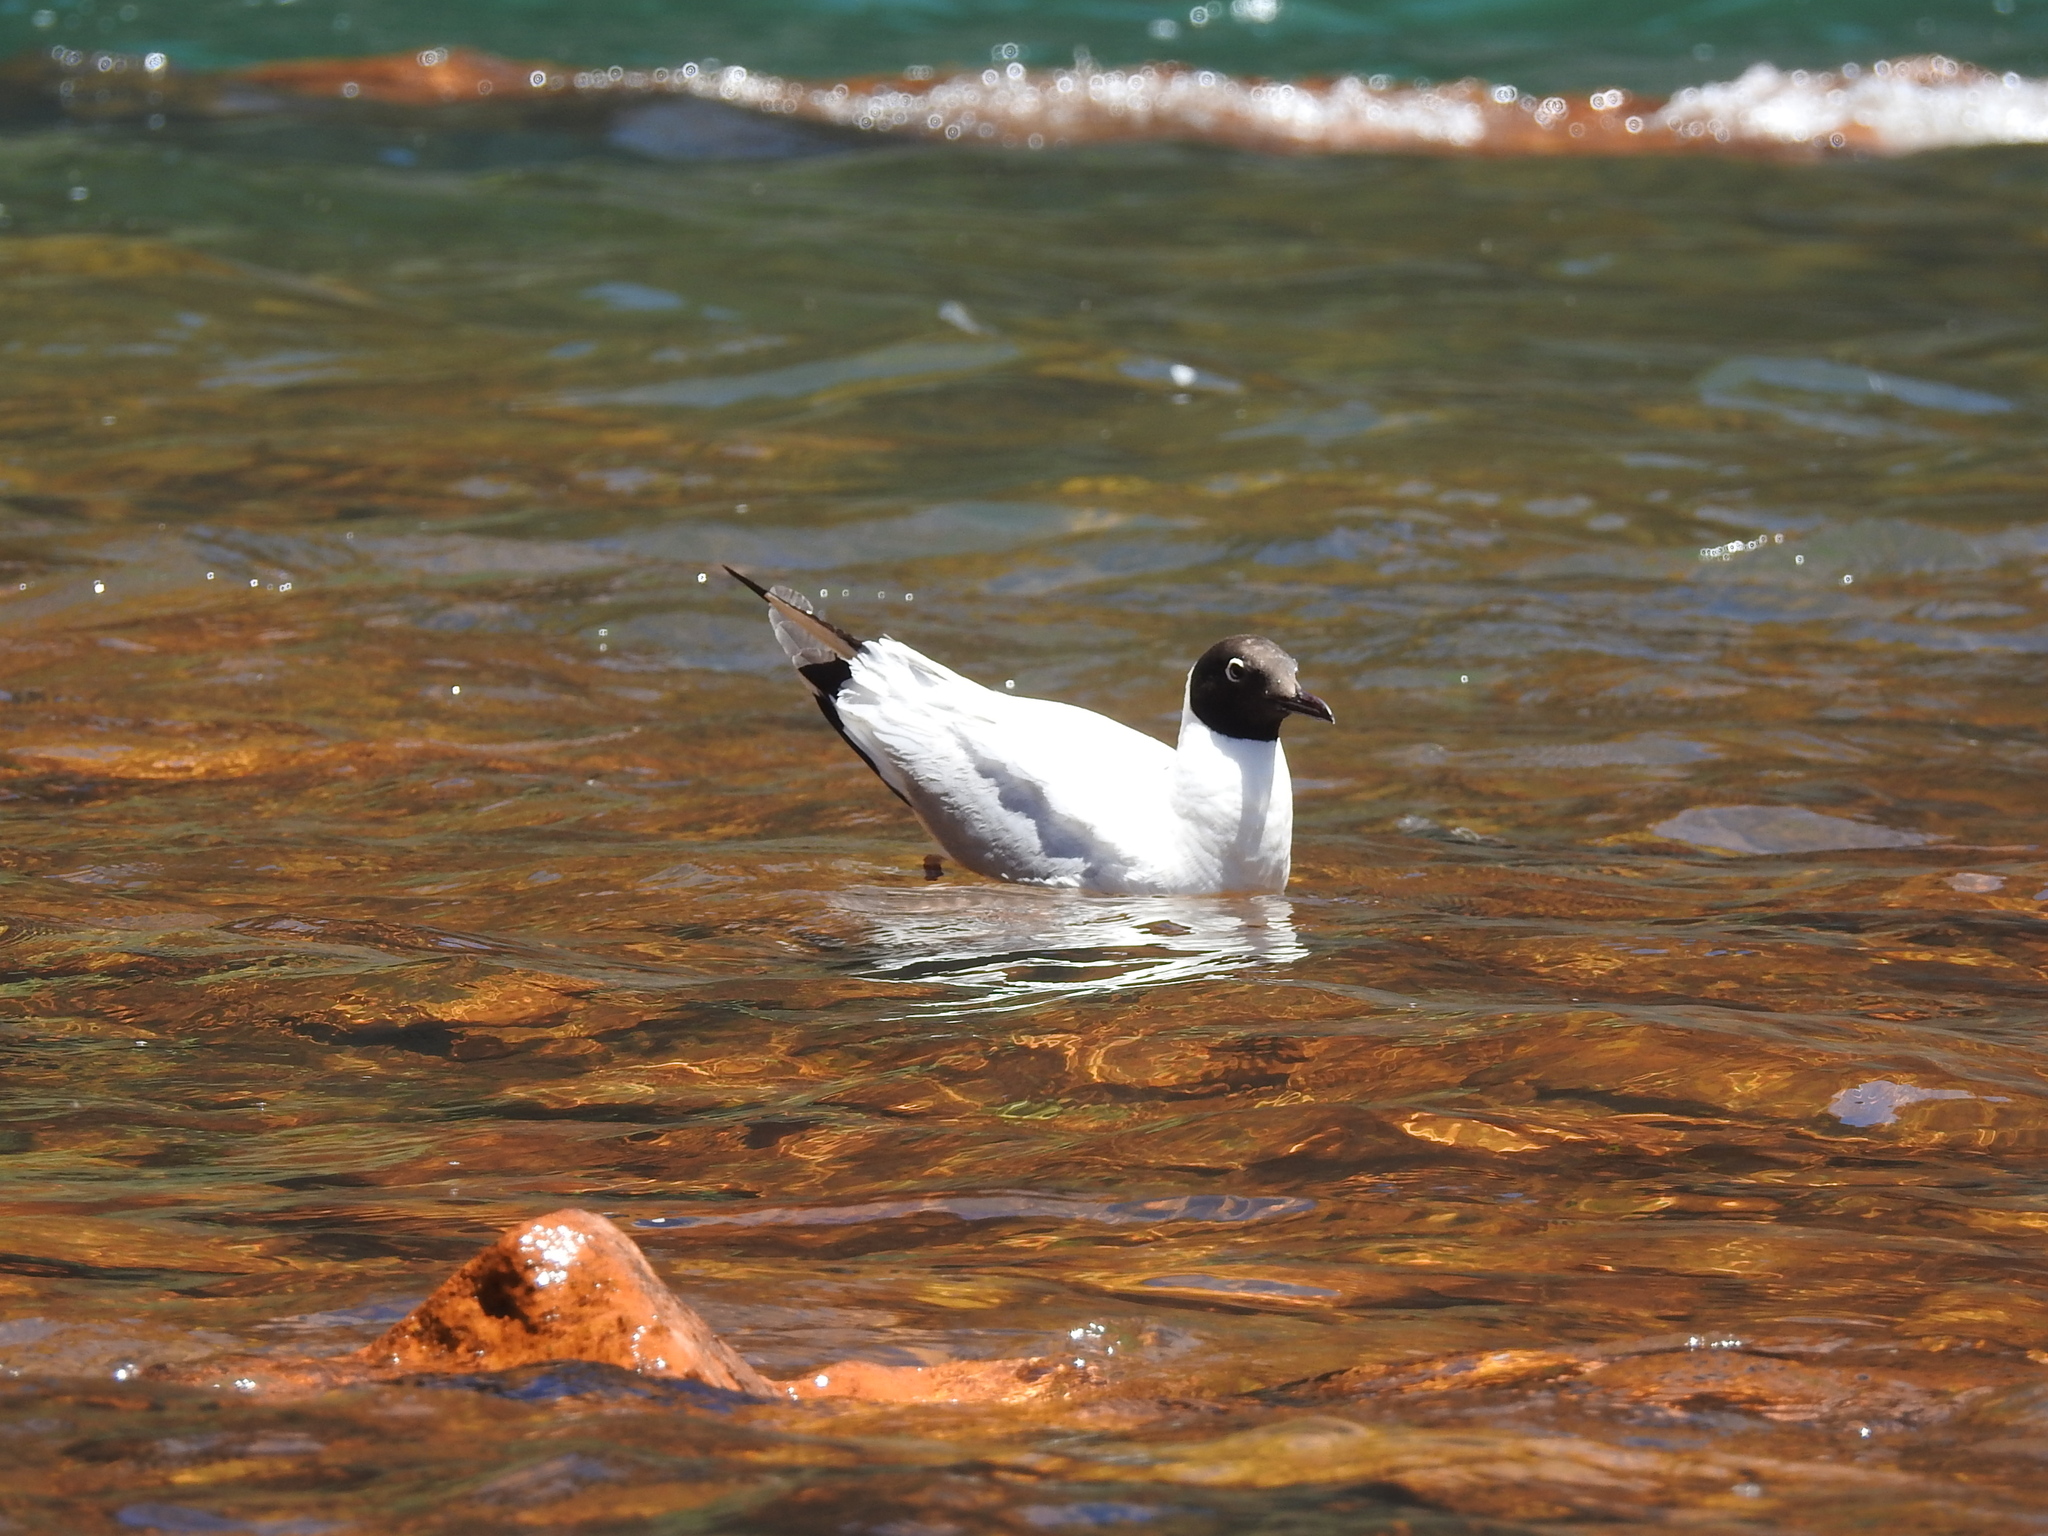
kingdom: Animalia
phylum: Chordata
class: Aves
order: Charadriiformes
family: Laridae
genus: Chroicocephalus
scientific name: Chroicocephalus serranus
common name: Andean gull
